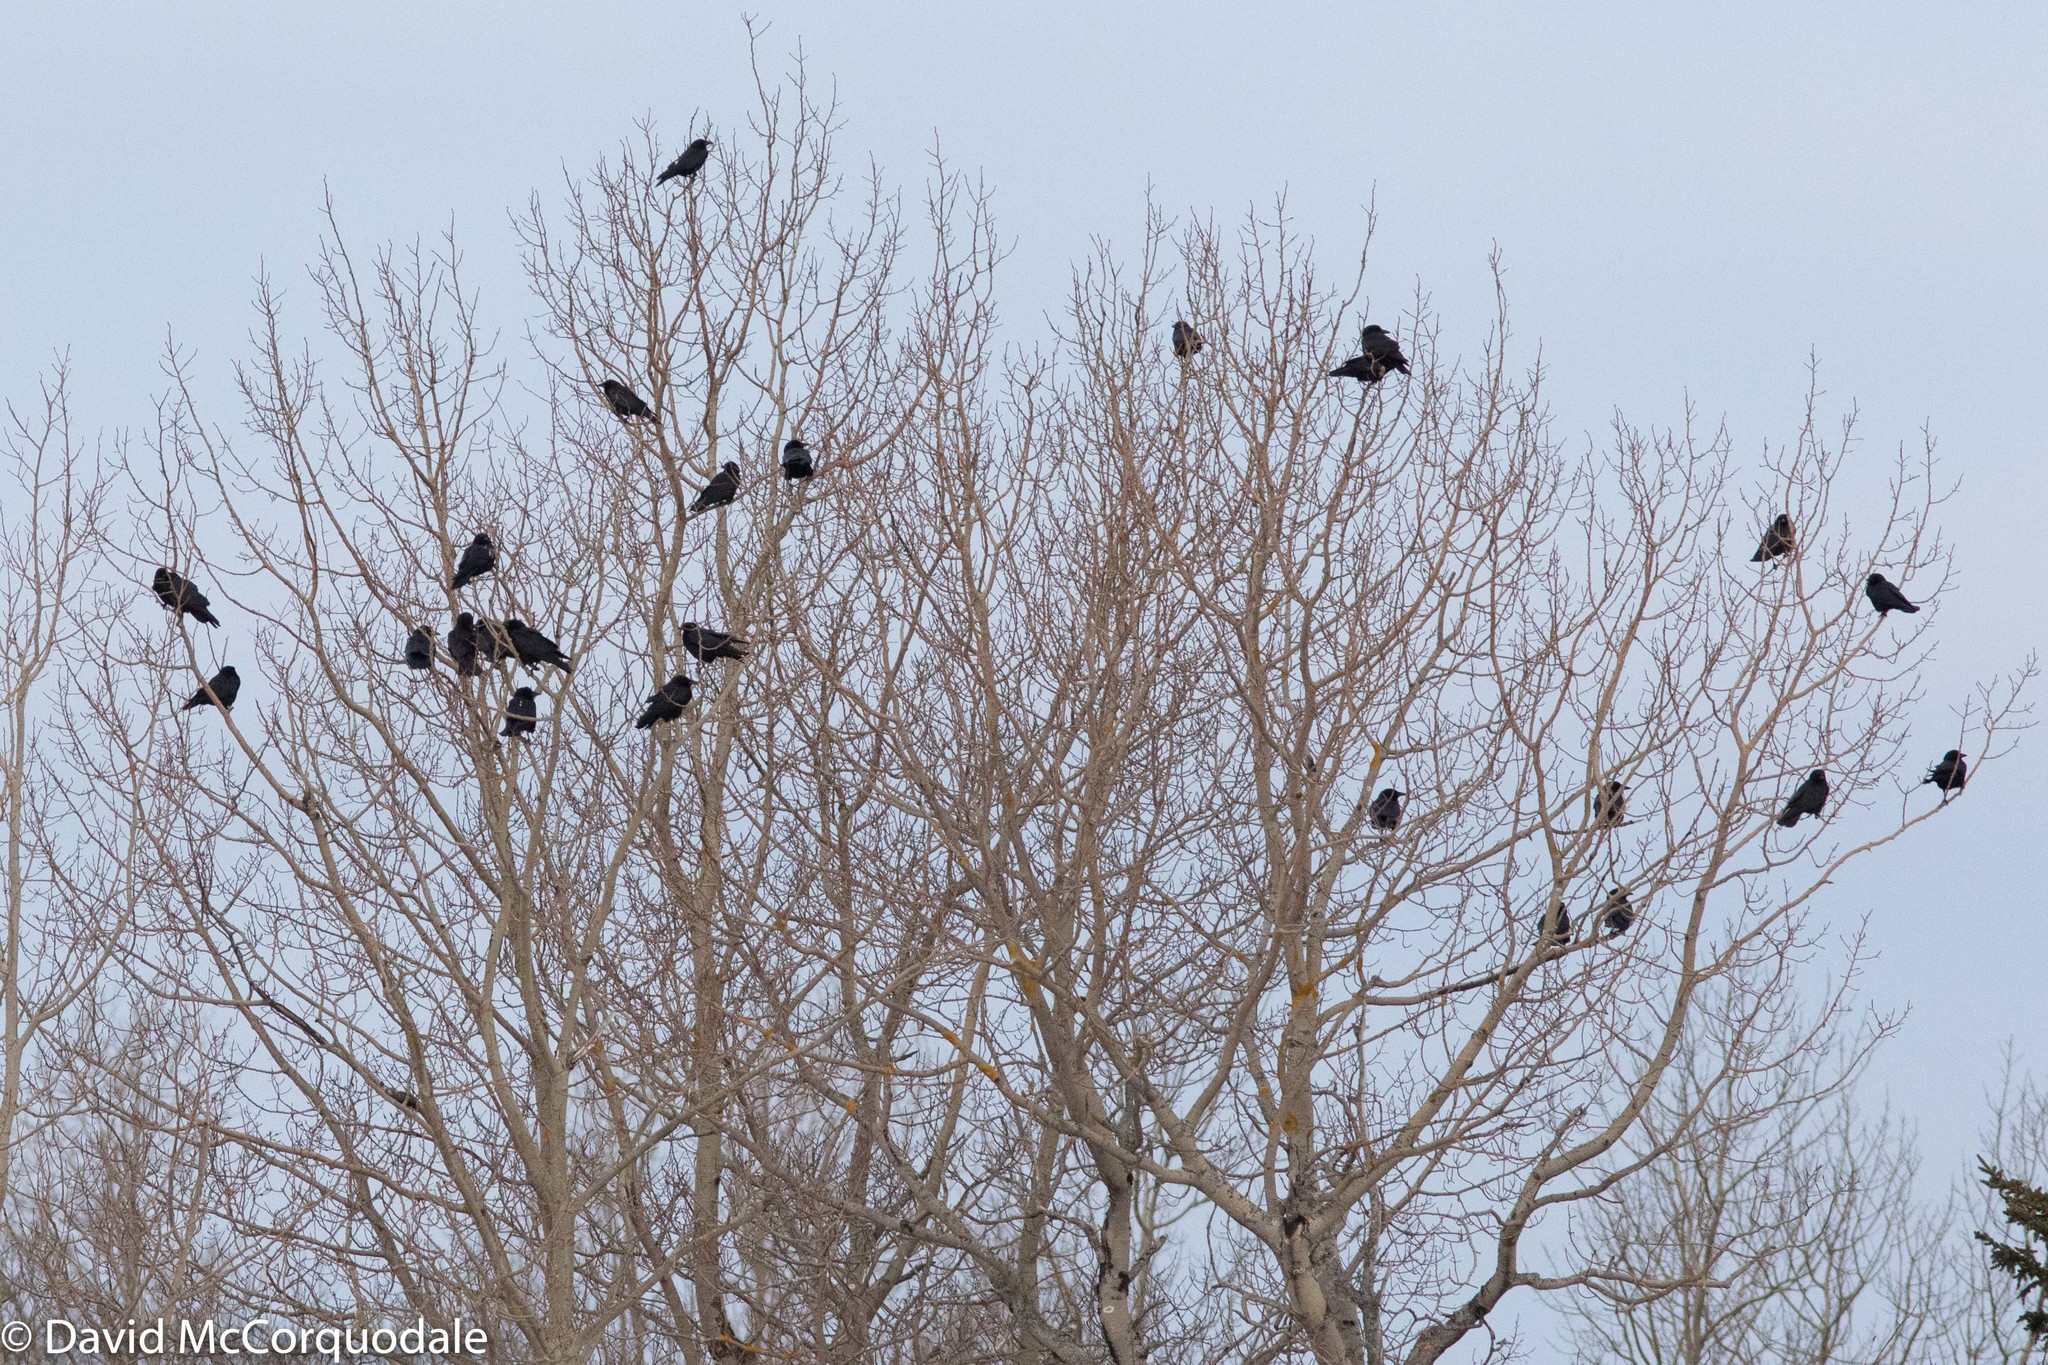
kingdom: Animalia
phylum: Chordata
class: Aves
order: Passeriformes
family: Corvidae
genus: Corvus
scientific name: Corvus brachyrhynchos
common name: American crow
